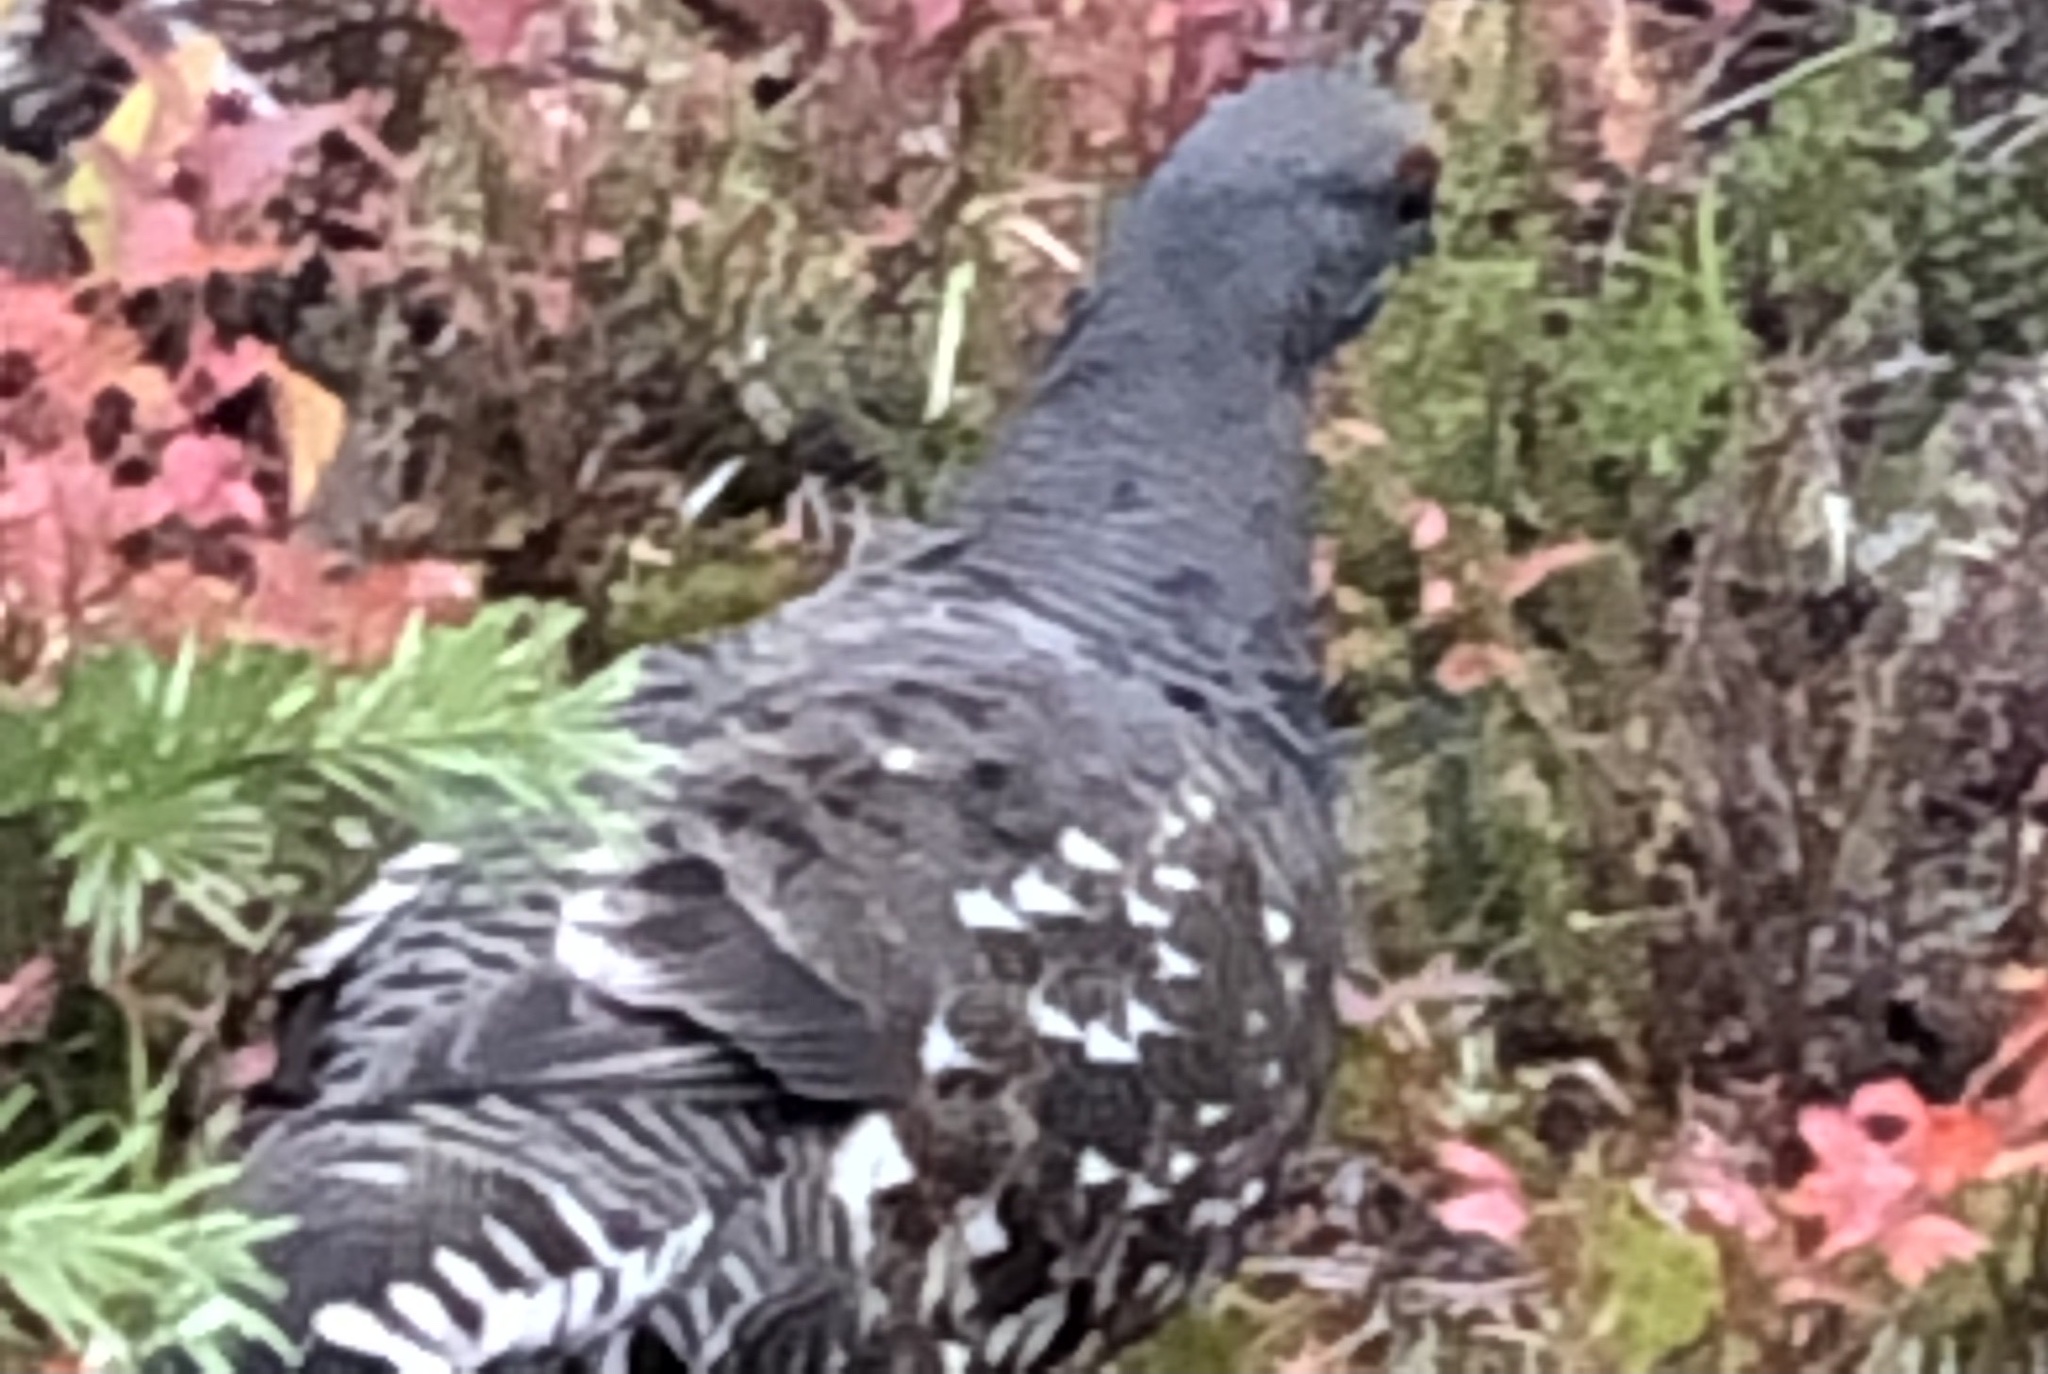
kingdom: Animalia
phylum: Chordata
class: Aves
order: Galliformes
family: Phasianidae
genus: Canachites
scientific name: Canachites canadensis
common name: Spruce grouse
